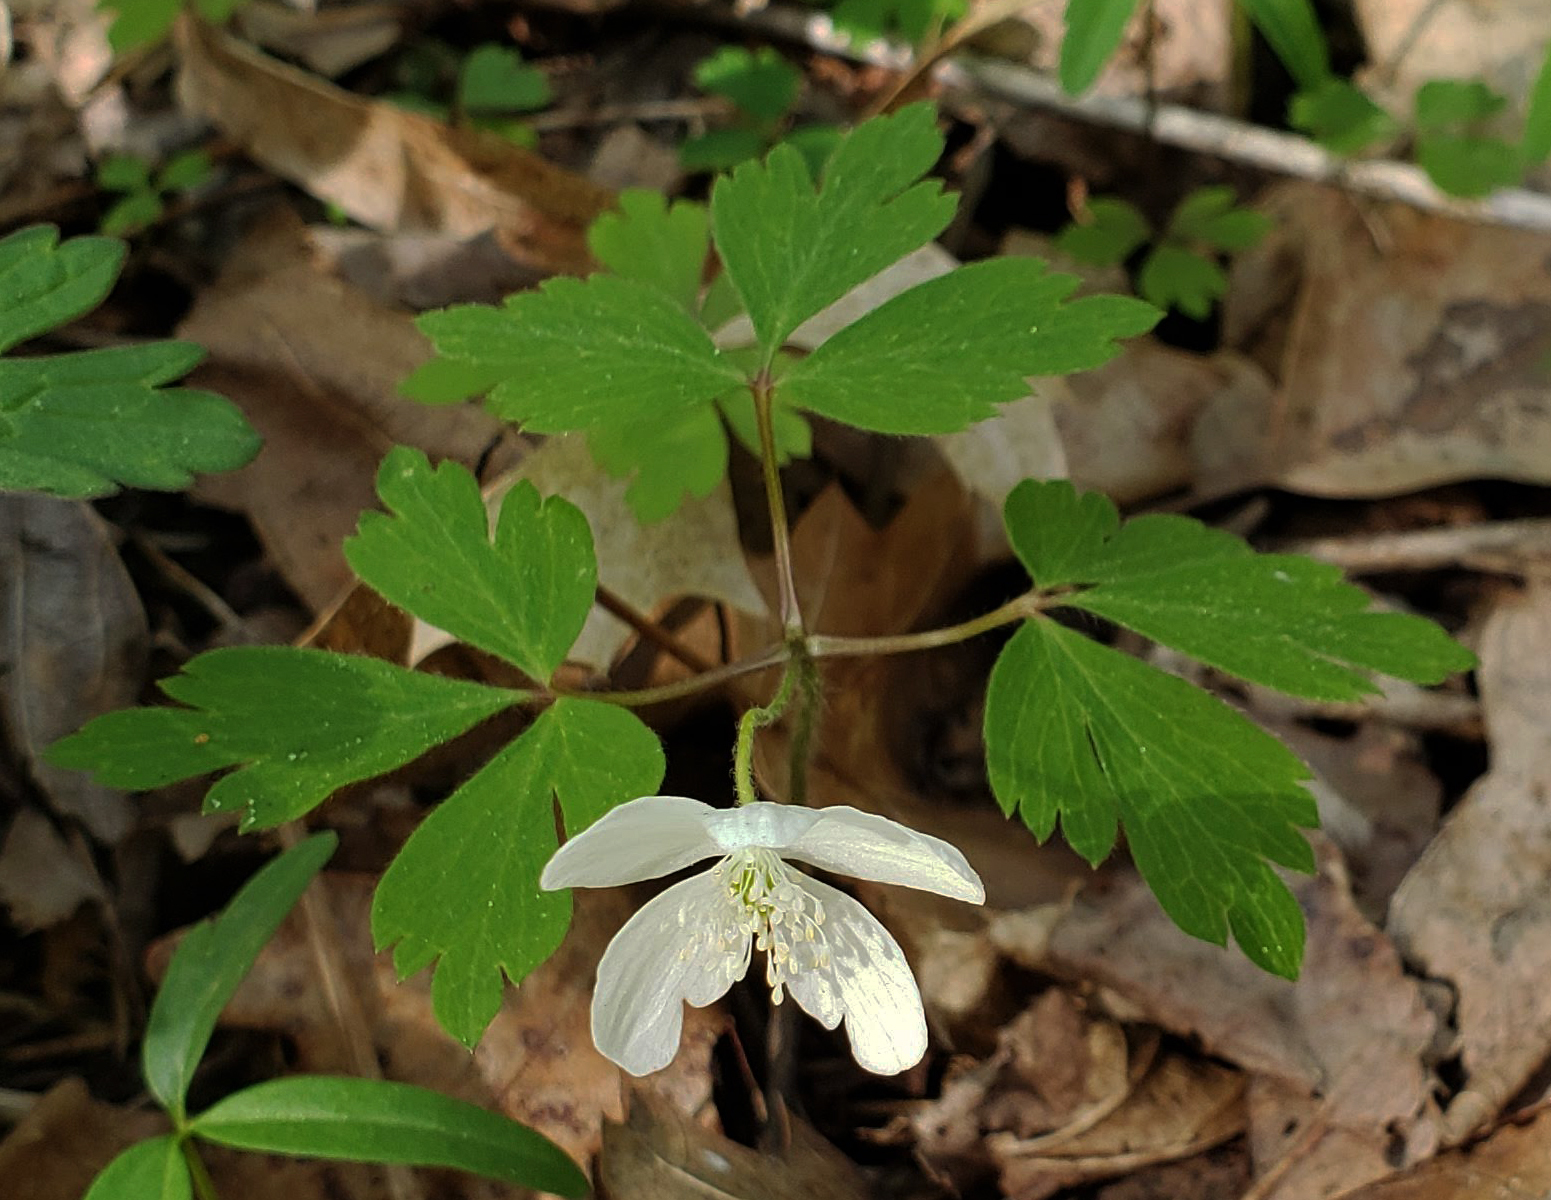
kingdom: Plantae
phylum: Tracheophyta
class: Magnoliopsida
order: Ranunculales
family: Ranunculaceae
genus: Anemone
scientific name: Anemone quinquefolia
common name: Wood anemone
